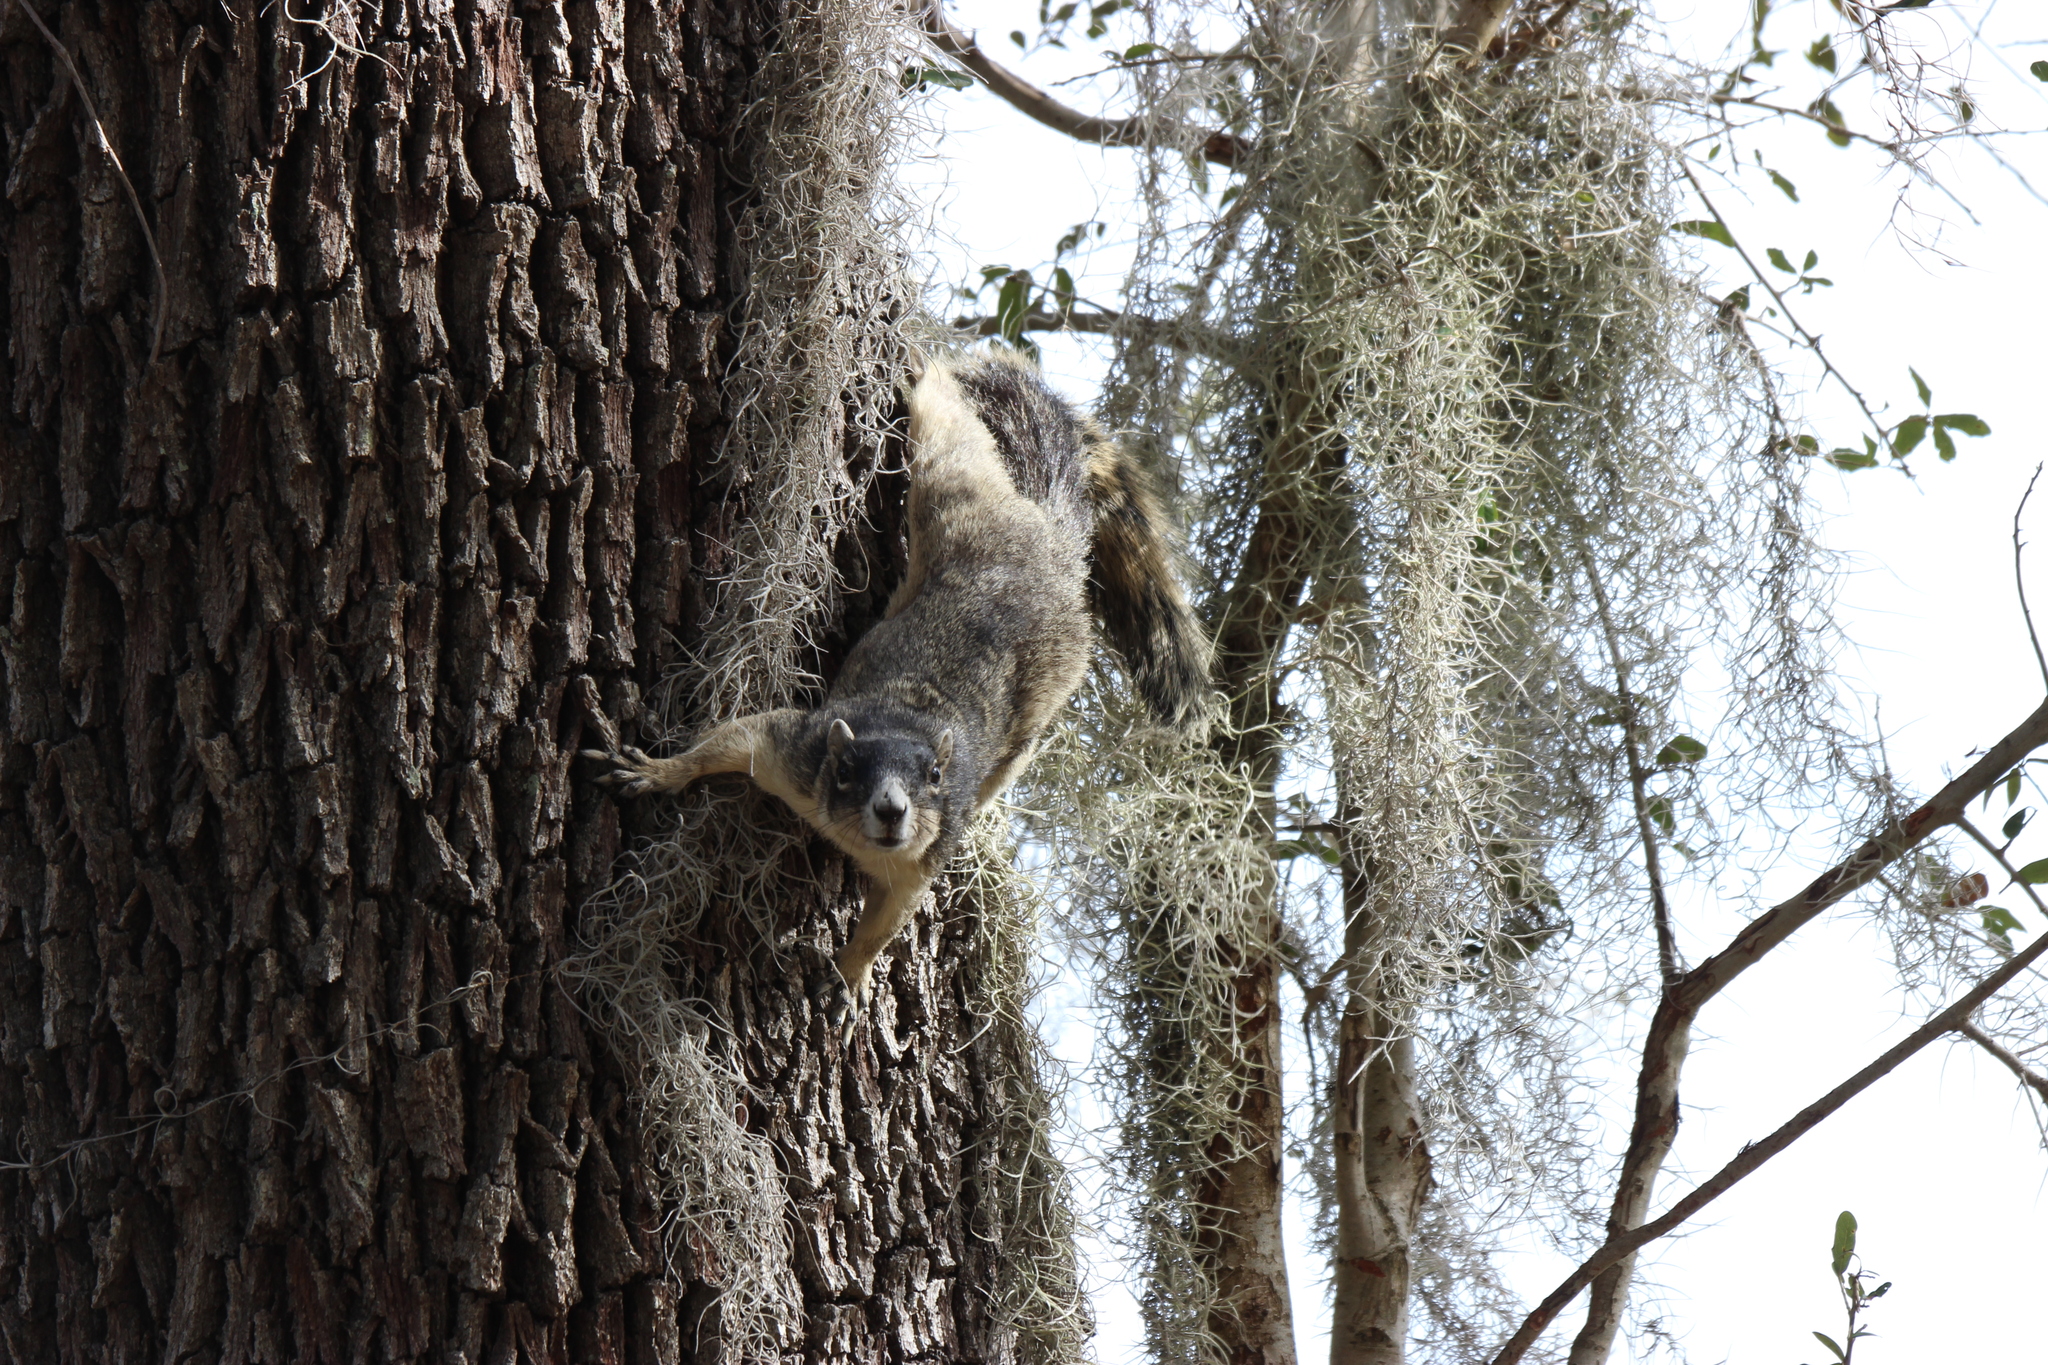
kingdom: Animalia
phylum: Chordata
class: Mammalia
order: Rodentia
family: Sciuridae
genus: Sciurus
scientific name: Sciurus niger
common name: Fox squirrel
